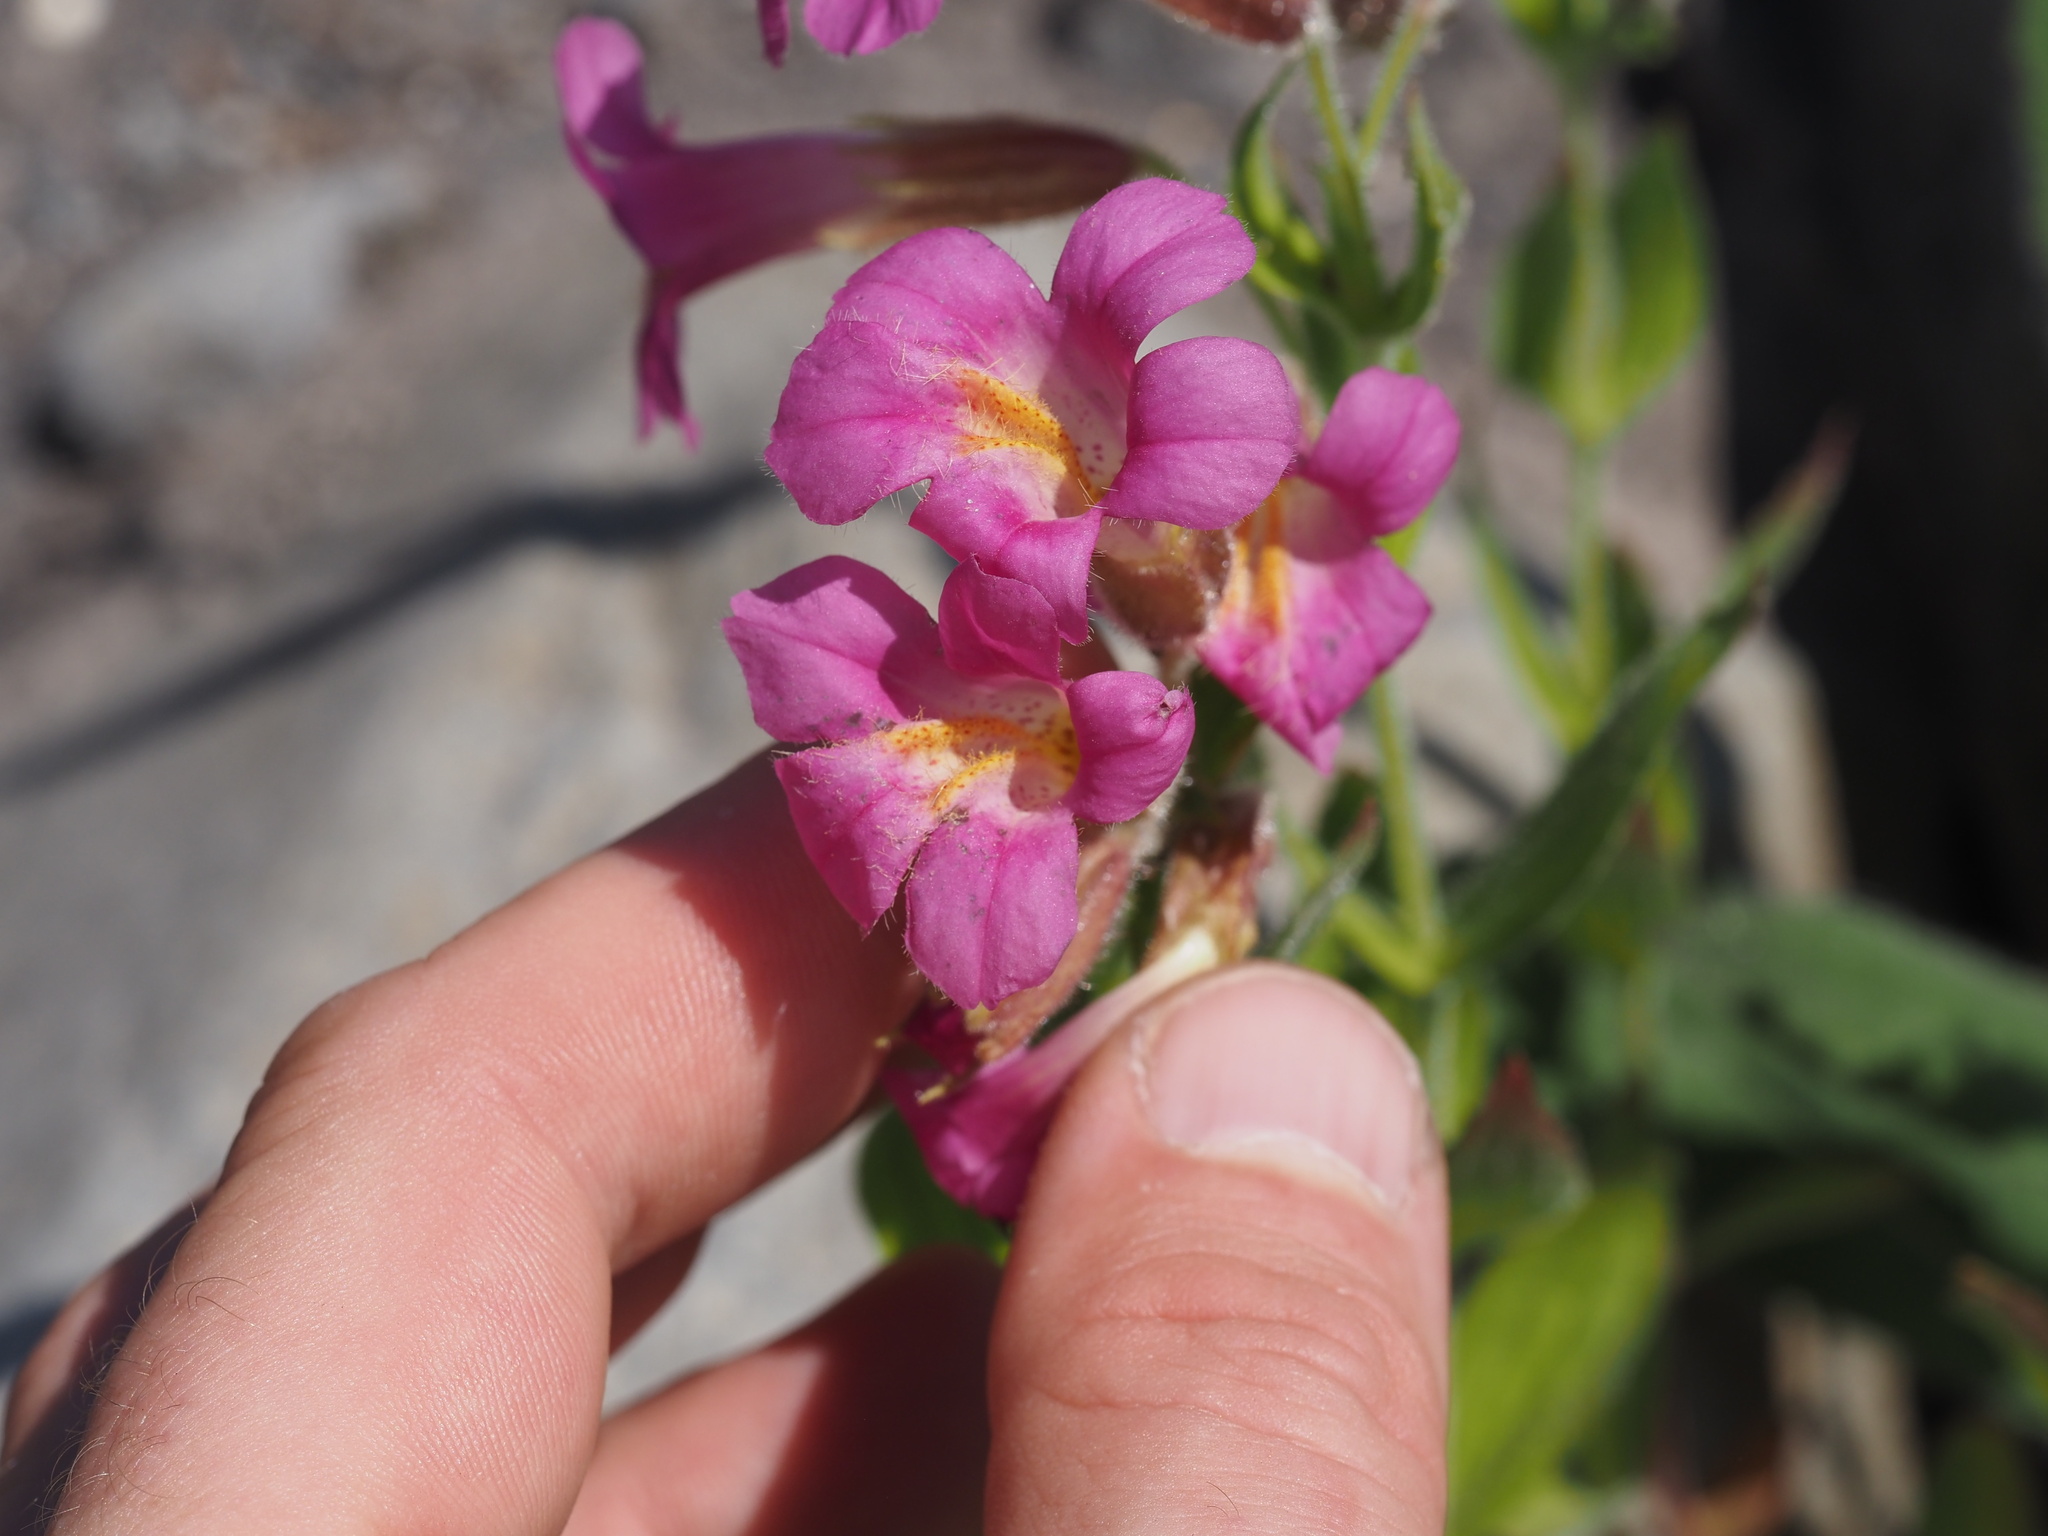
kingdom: Plantae
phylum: Tracheophyta
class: Magnoliopsida
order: Lamiales
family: Phrymaceae
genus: Erythranthe
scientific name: Erythranthe lewisii
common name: Lewis's monkey-flower
